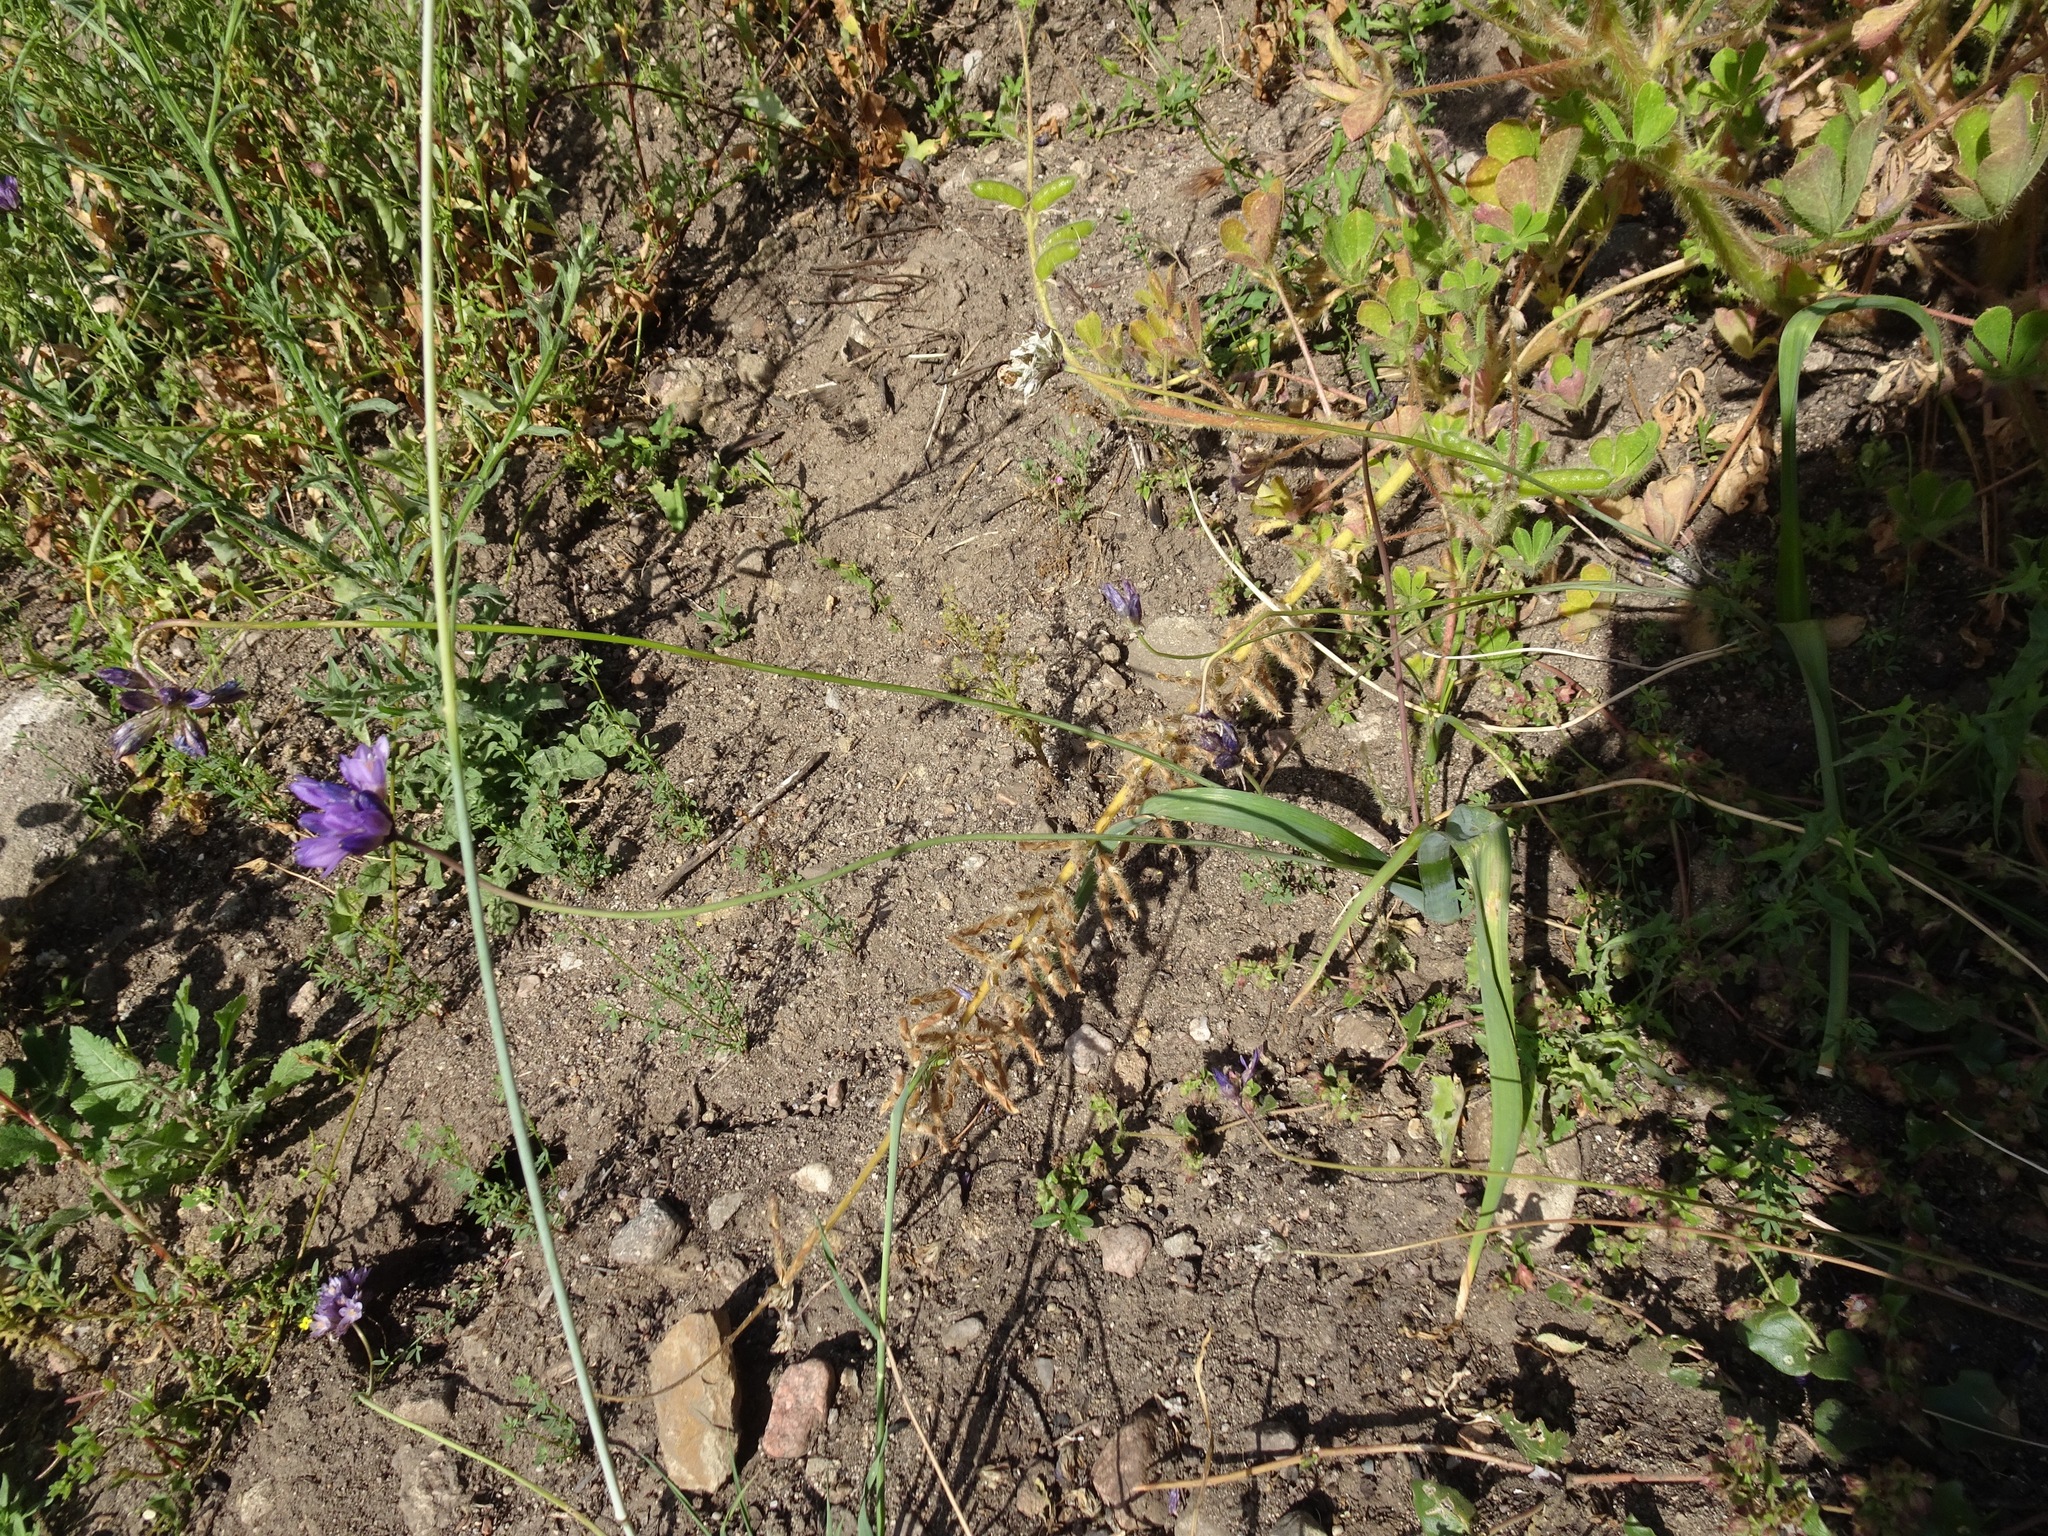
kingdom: Plantae
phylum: Tracheophyta
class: Liliopsida
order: Asparagales
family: Asparagaceae
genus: Dipterostemon
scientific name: Dipterostemon capitatus
